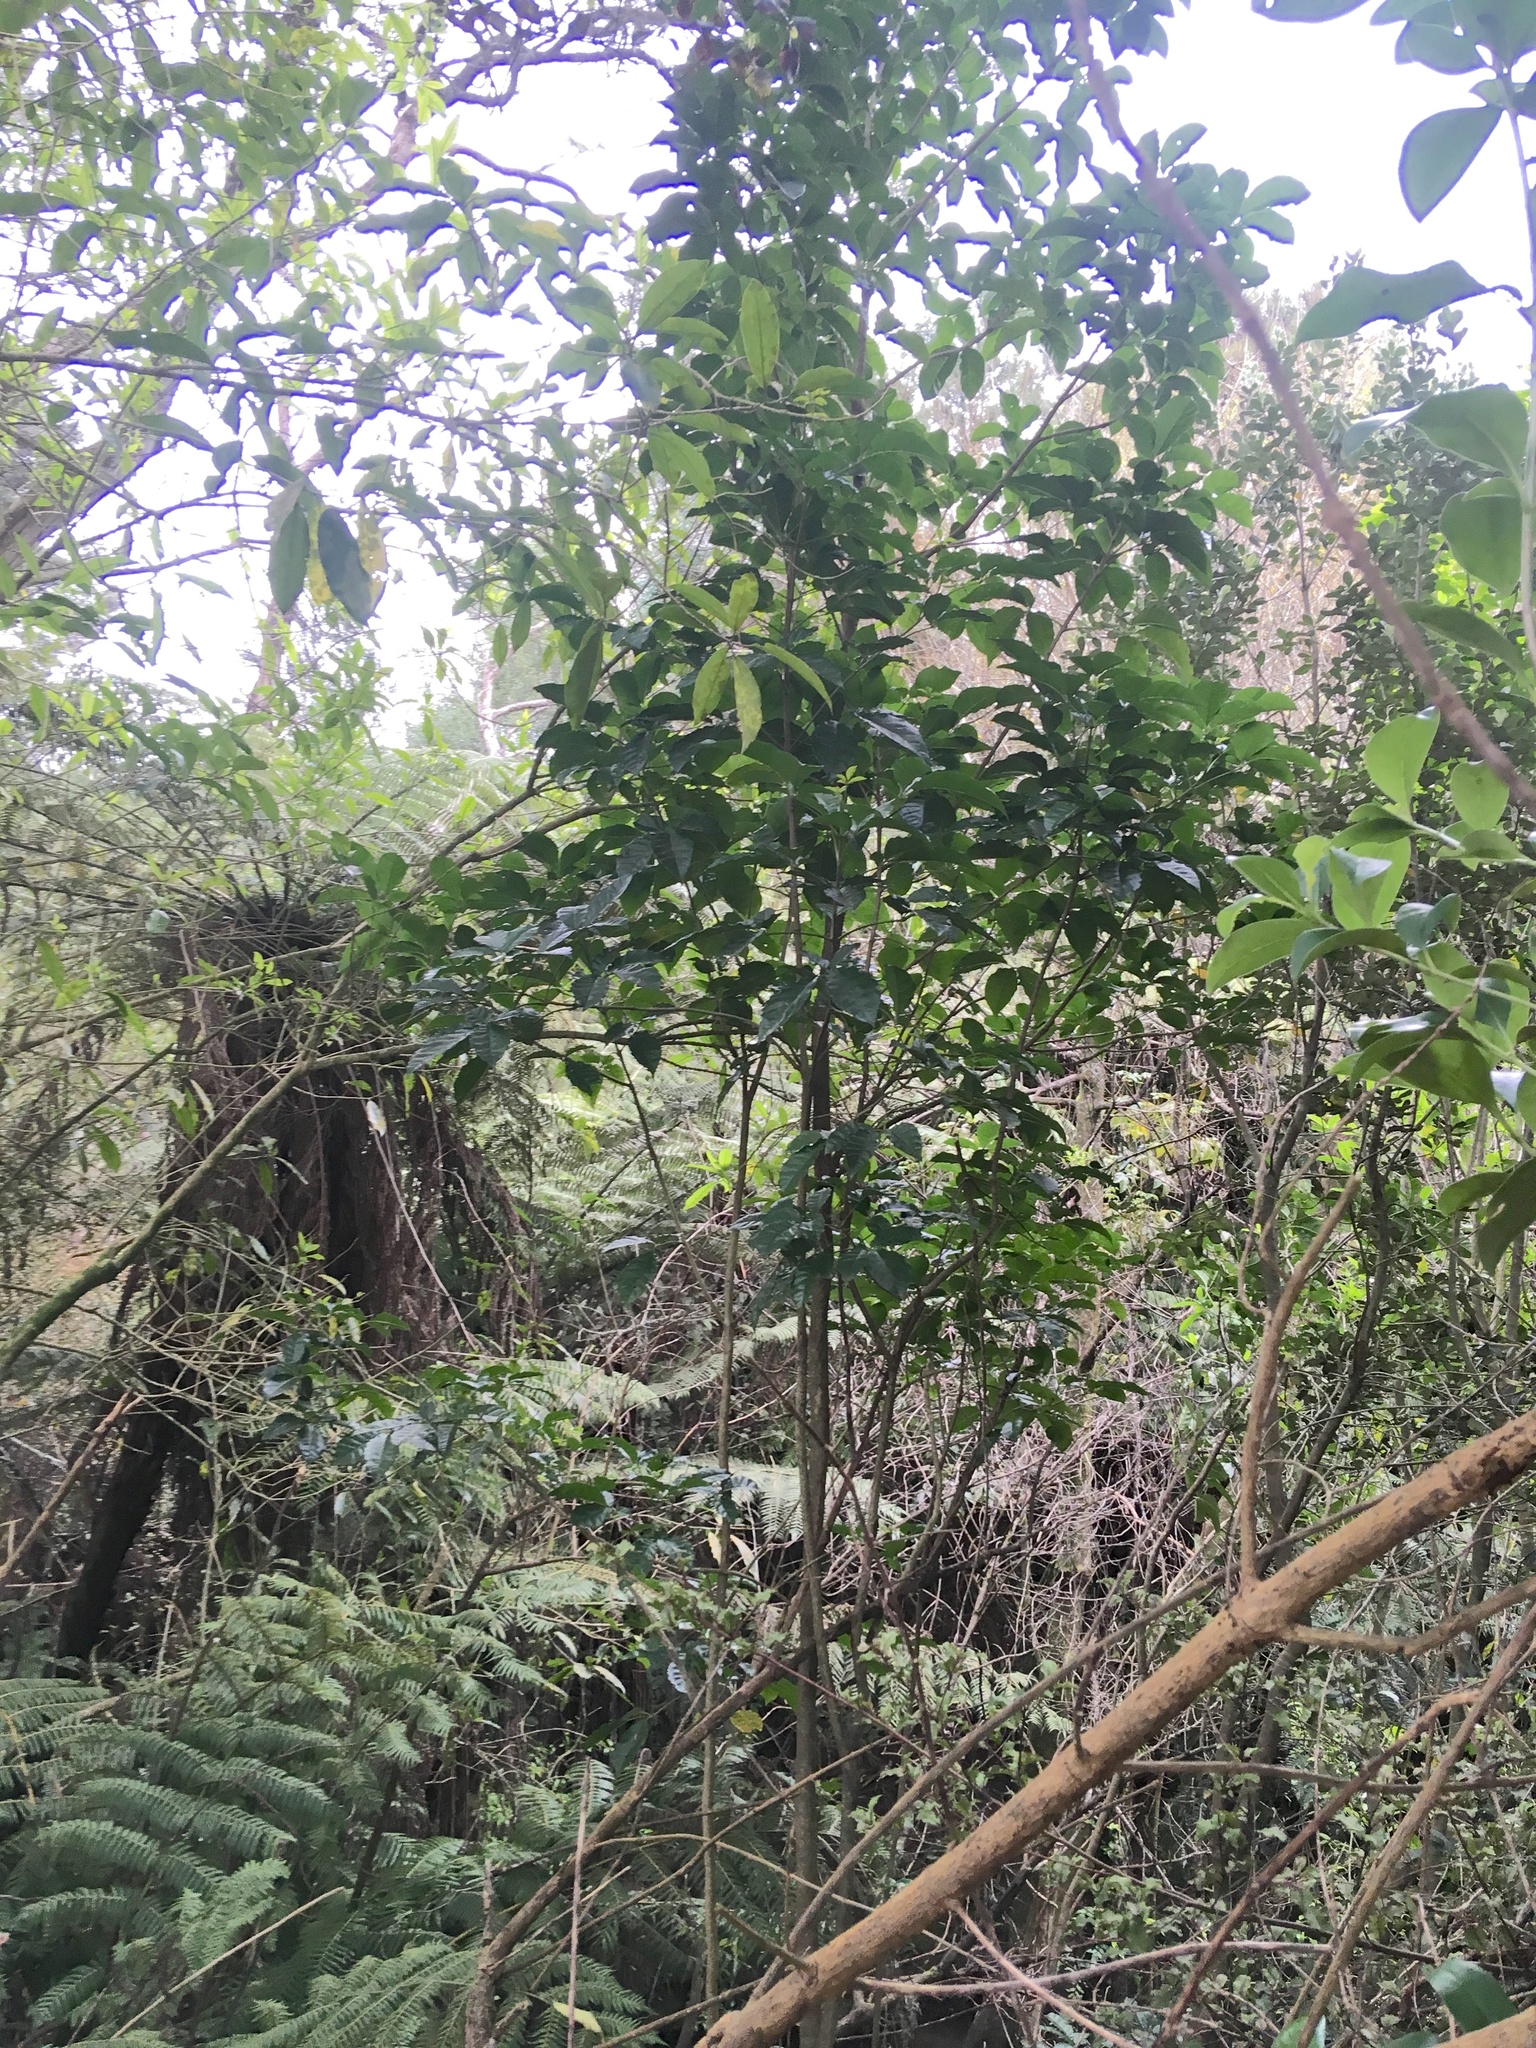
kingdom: Plantae
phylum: Tracheophyta
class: Magnoliopsida
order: Lamiales
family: Lamiaceae
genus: Vitex
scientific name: Vitex lucens
